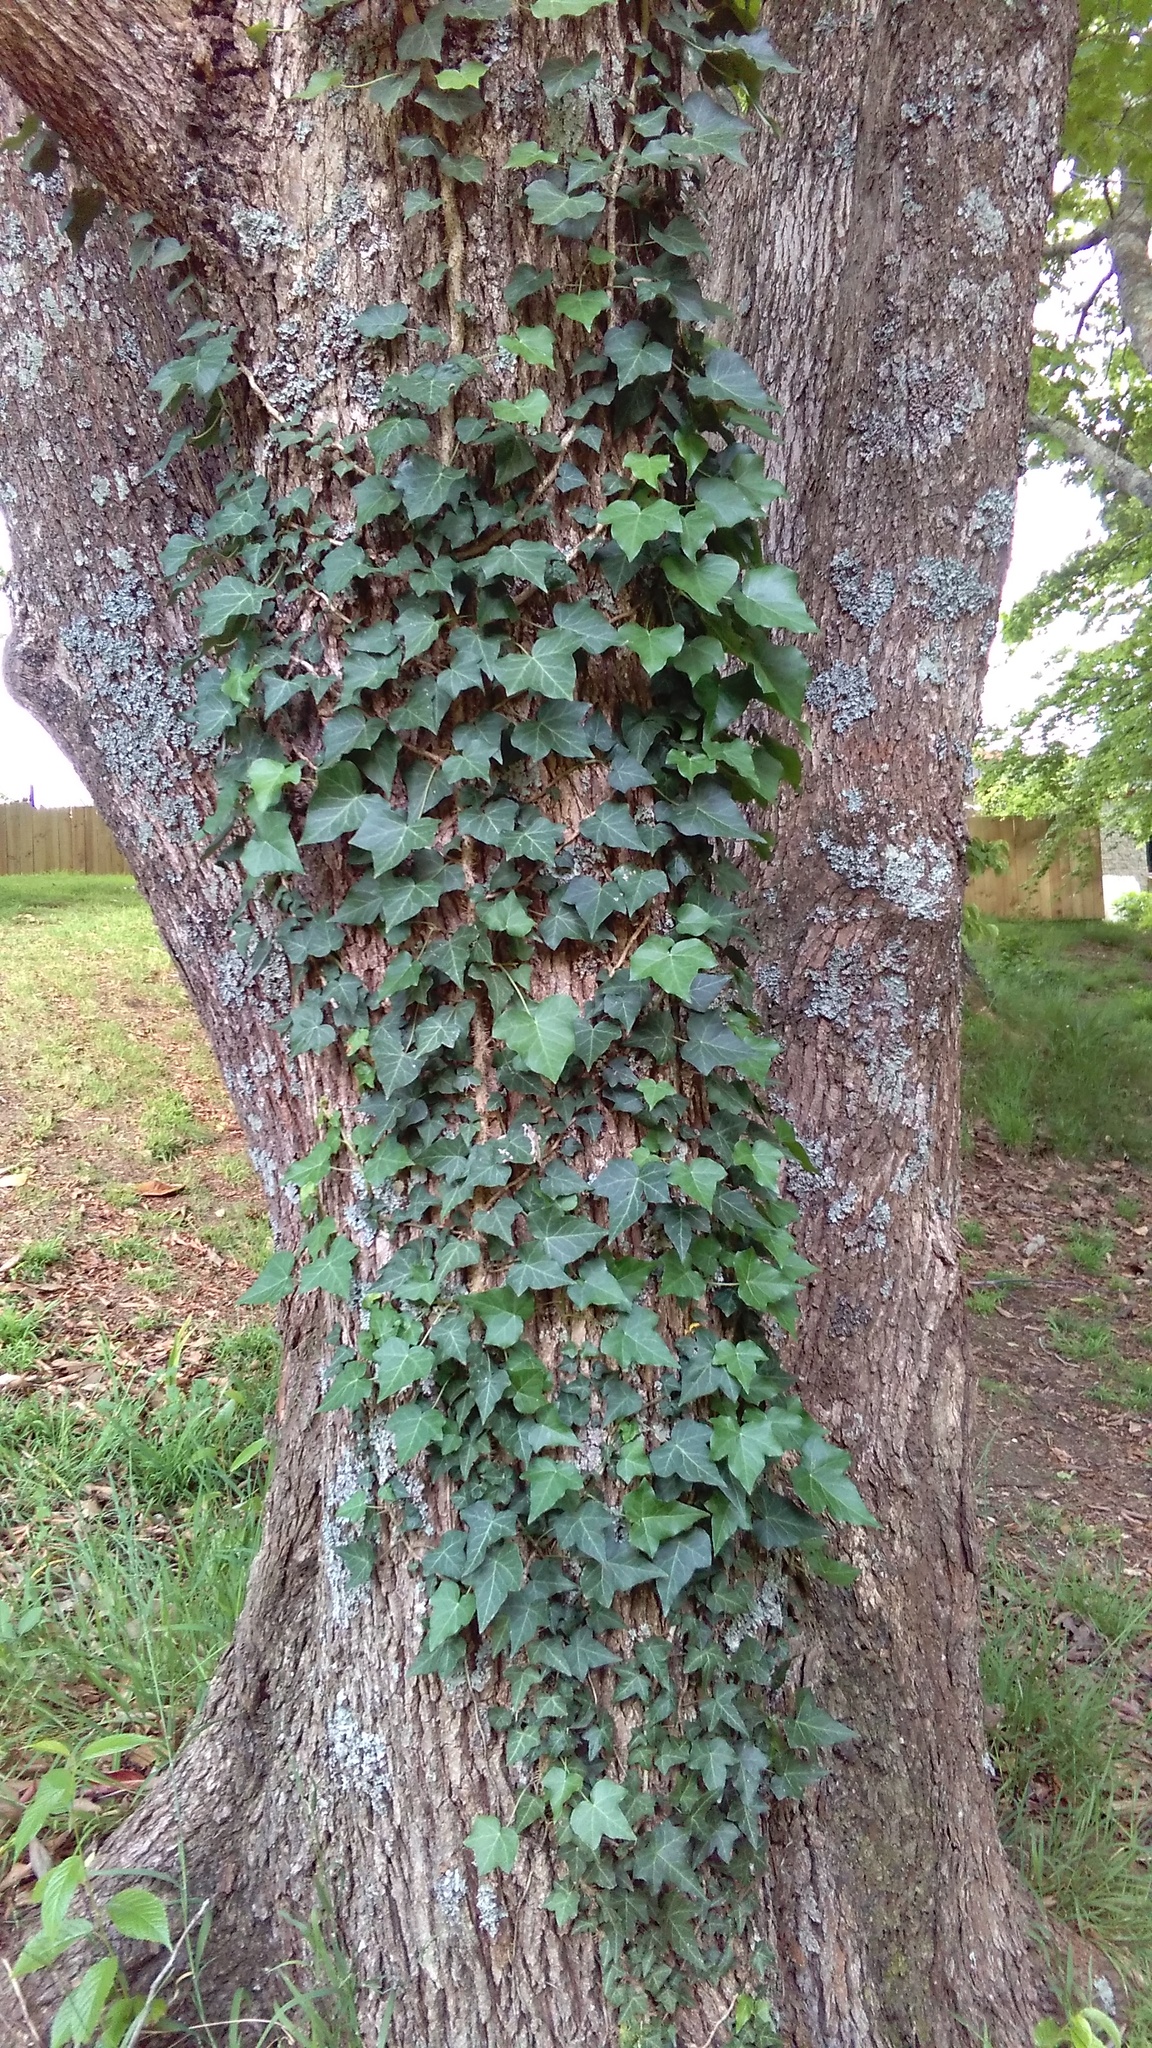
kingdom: Plantae
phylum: Tracheophyta
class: Magnoliopsida
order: Apiales
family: Araliaceae
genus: Hedera
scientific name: Hedera helix
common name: Ivy
